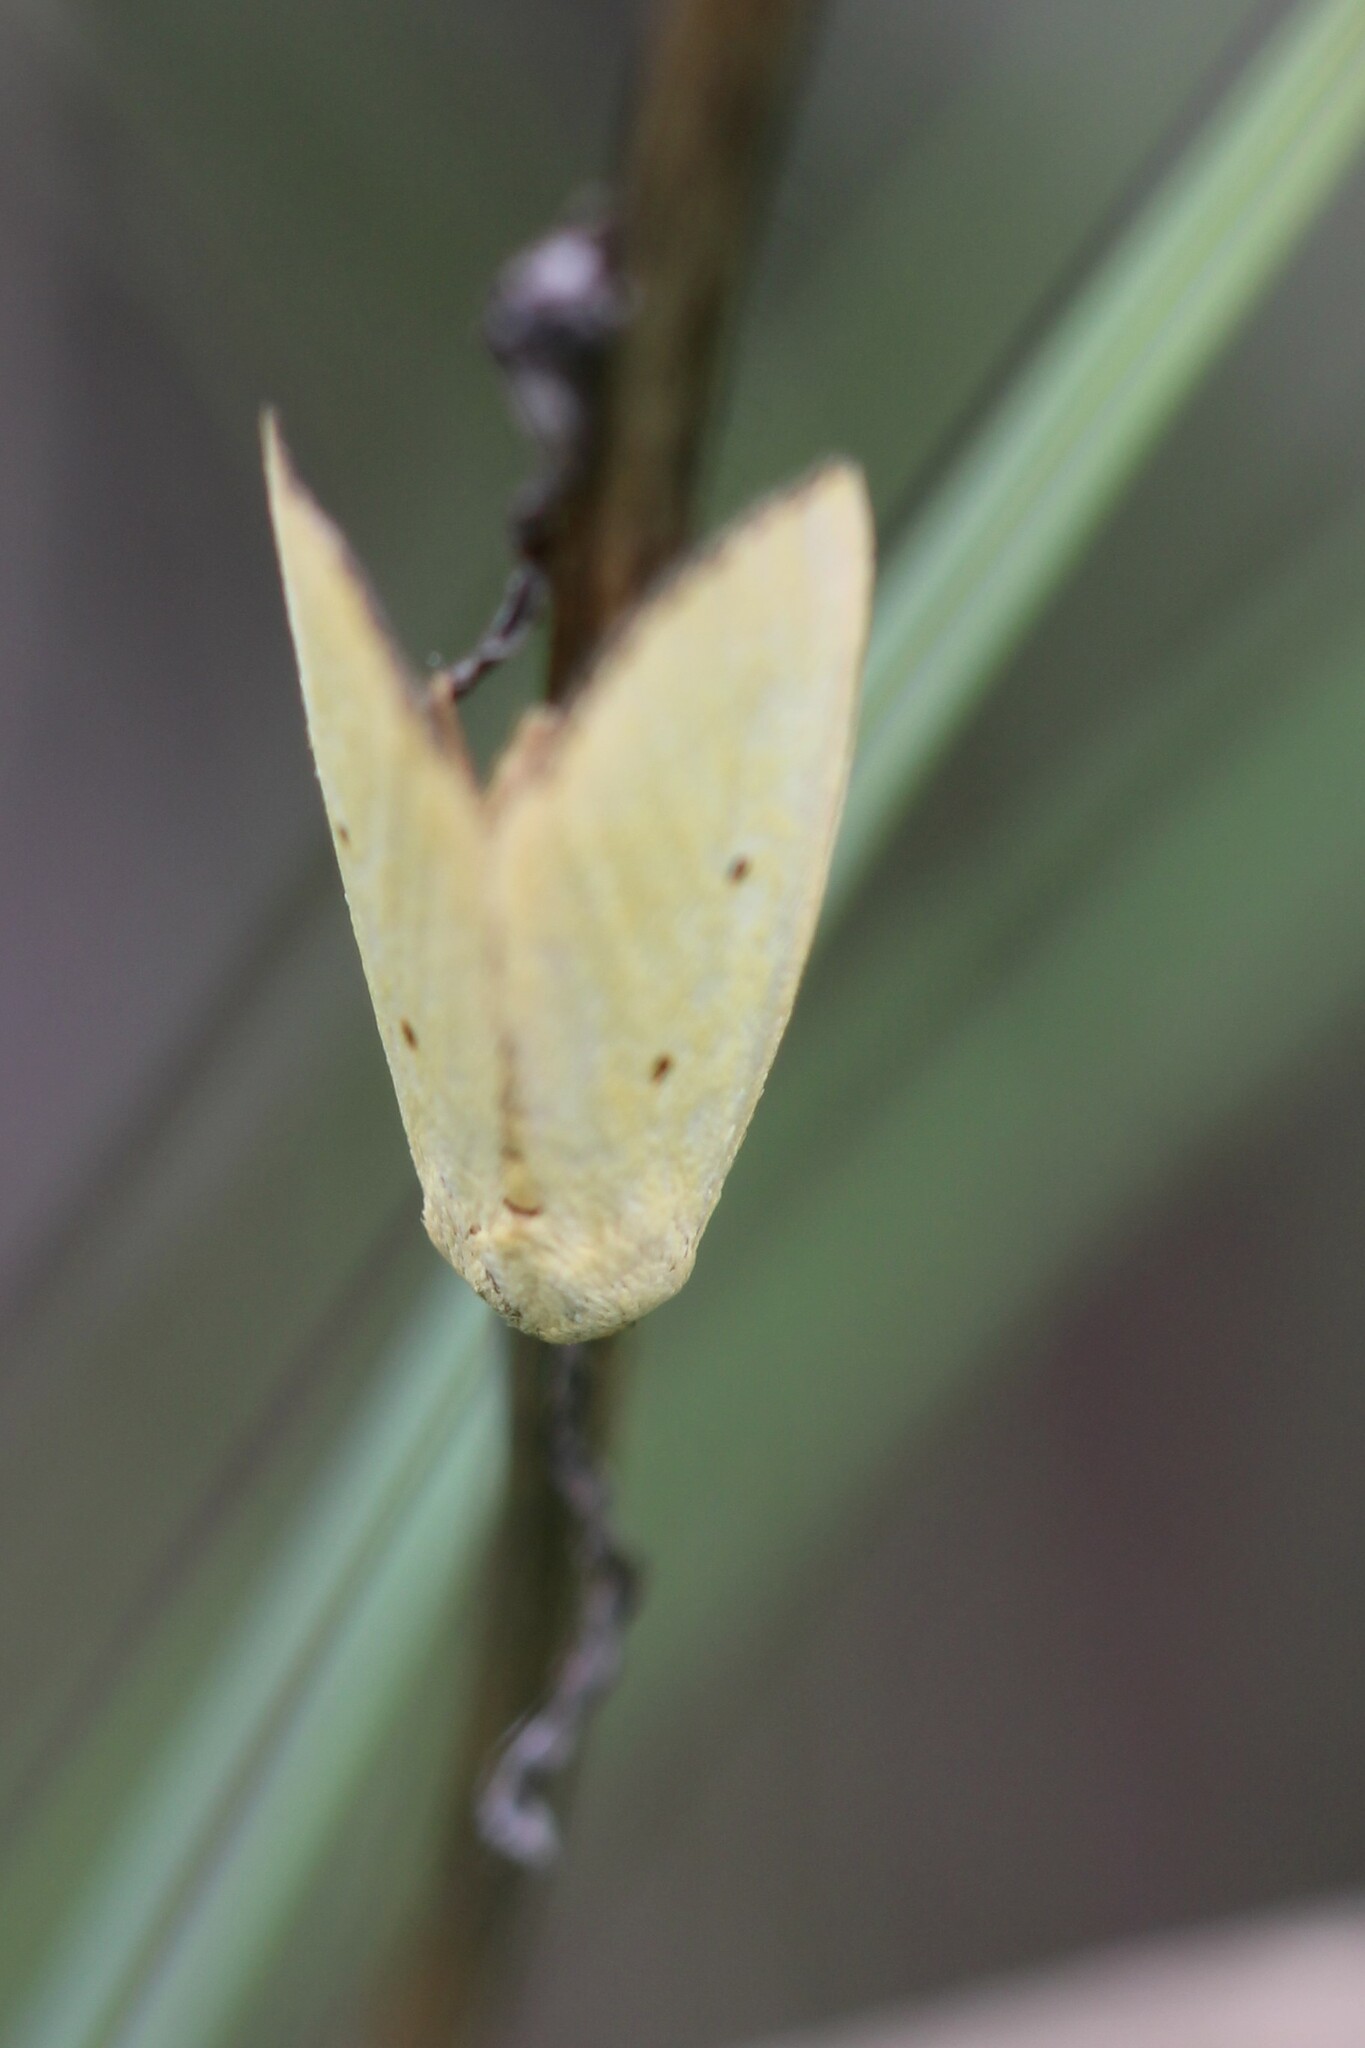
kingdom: Animalia
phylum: Arthropoda
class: Insecta
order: Lepidoptera
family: Noctuidae
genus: Marimatha
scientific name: Marimatha nigrofimbria
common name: Black-bordered lemon moth
